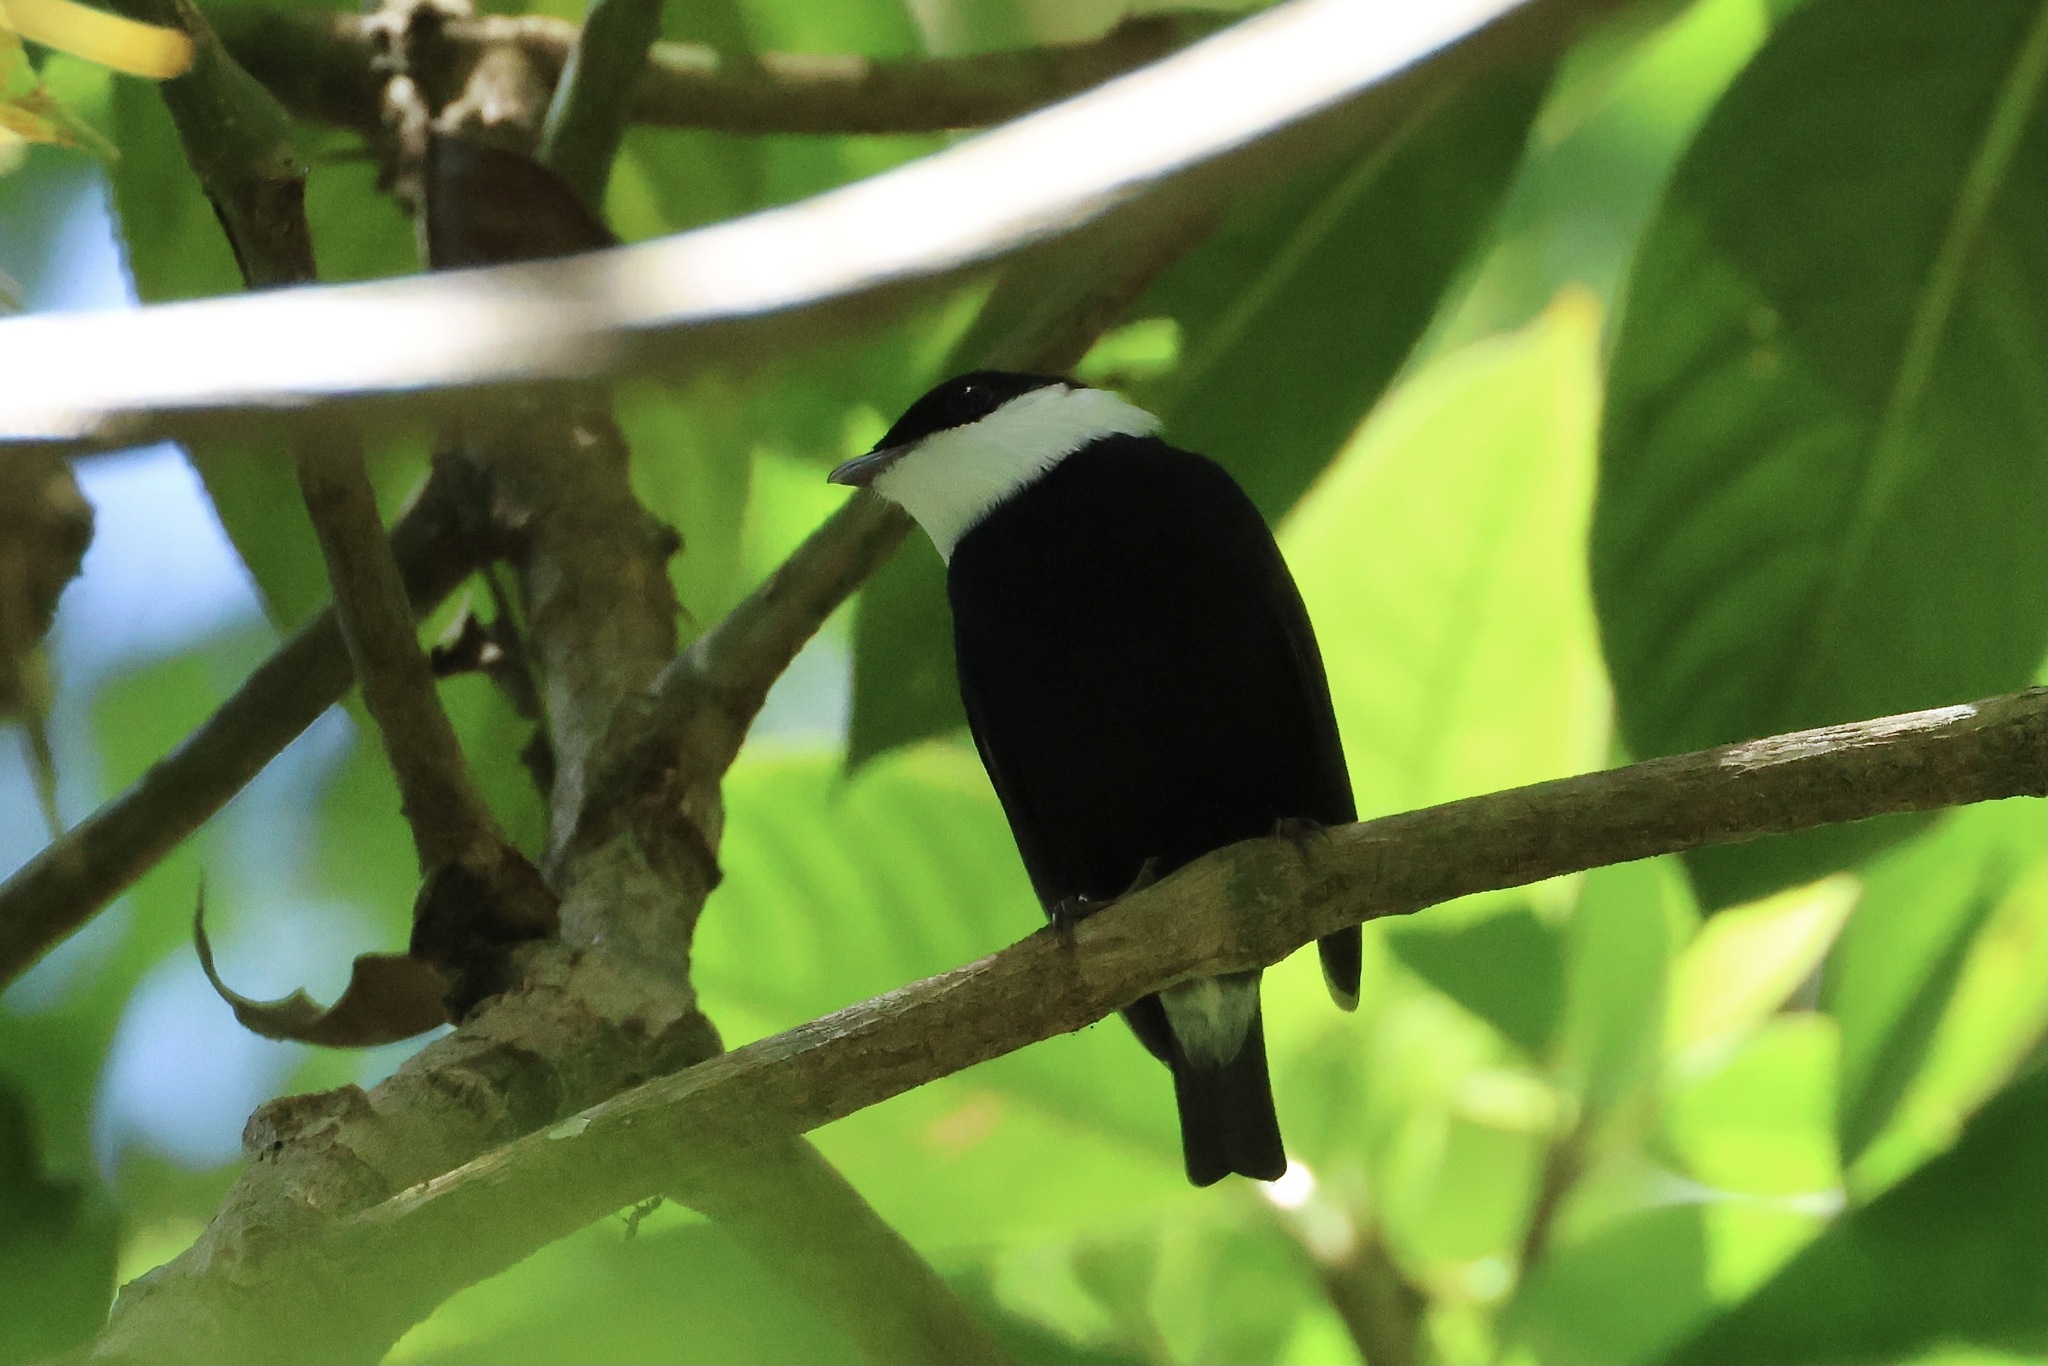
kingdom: Animalia
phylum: Chordata
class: Aves
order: Passeriformes
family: Pipridae
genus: Corapipo
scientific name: Corapipo altera
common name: White-ruffed manakin
